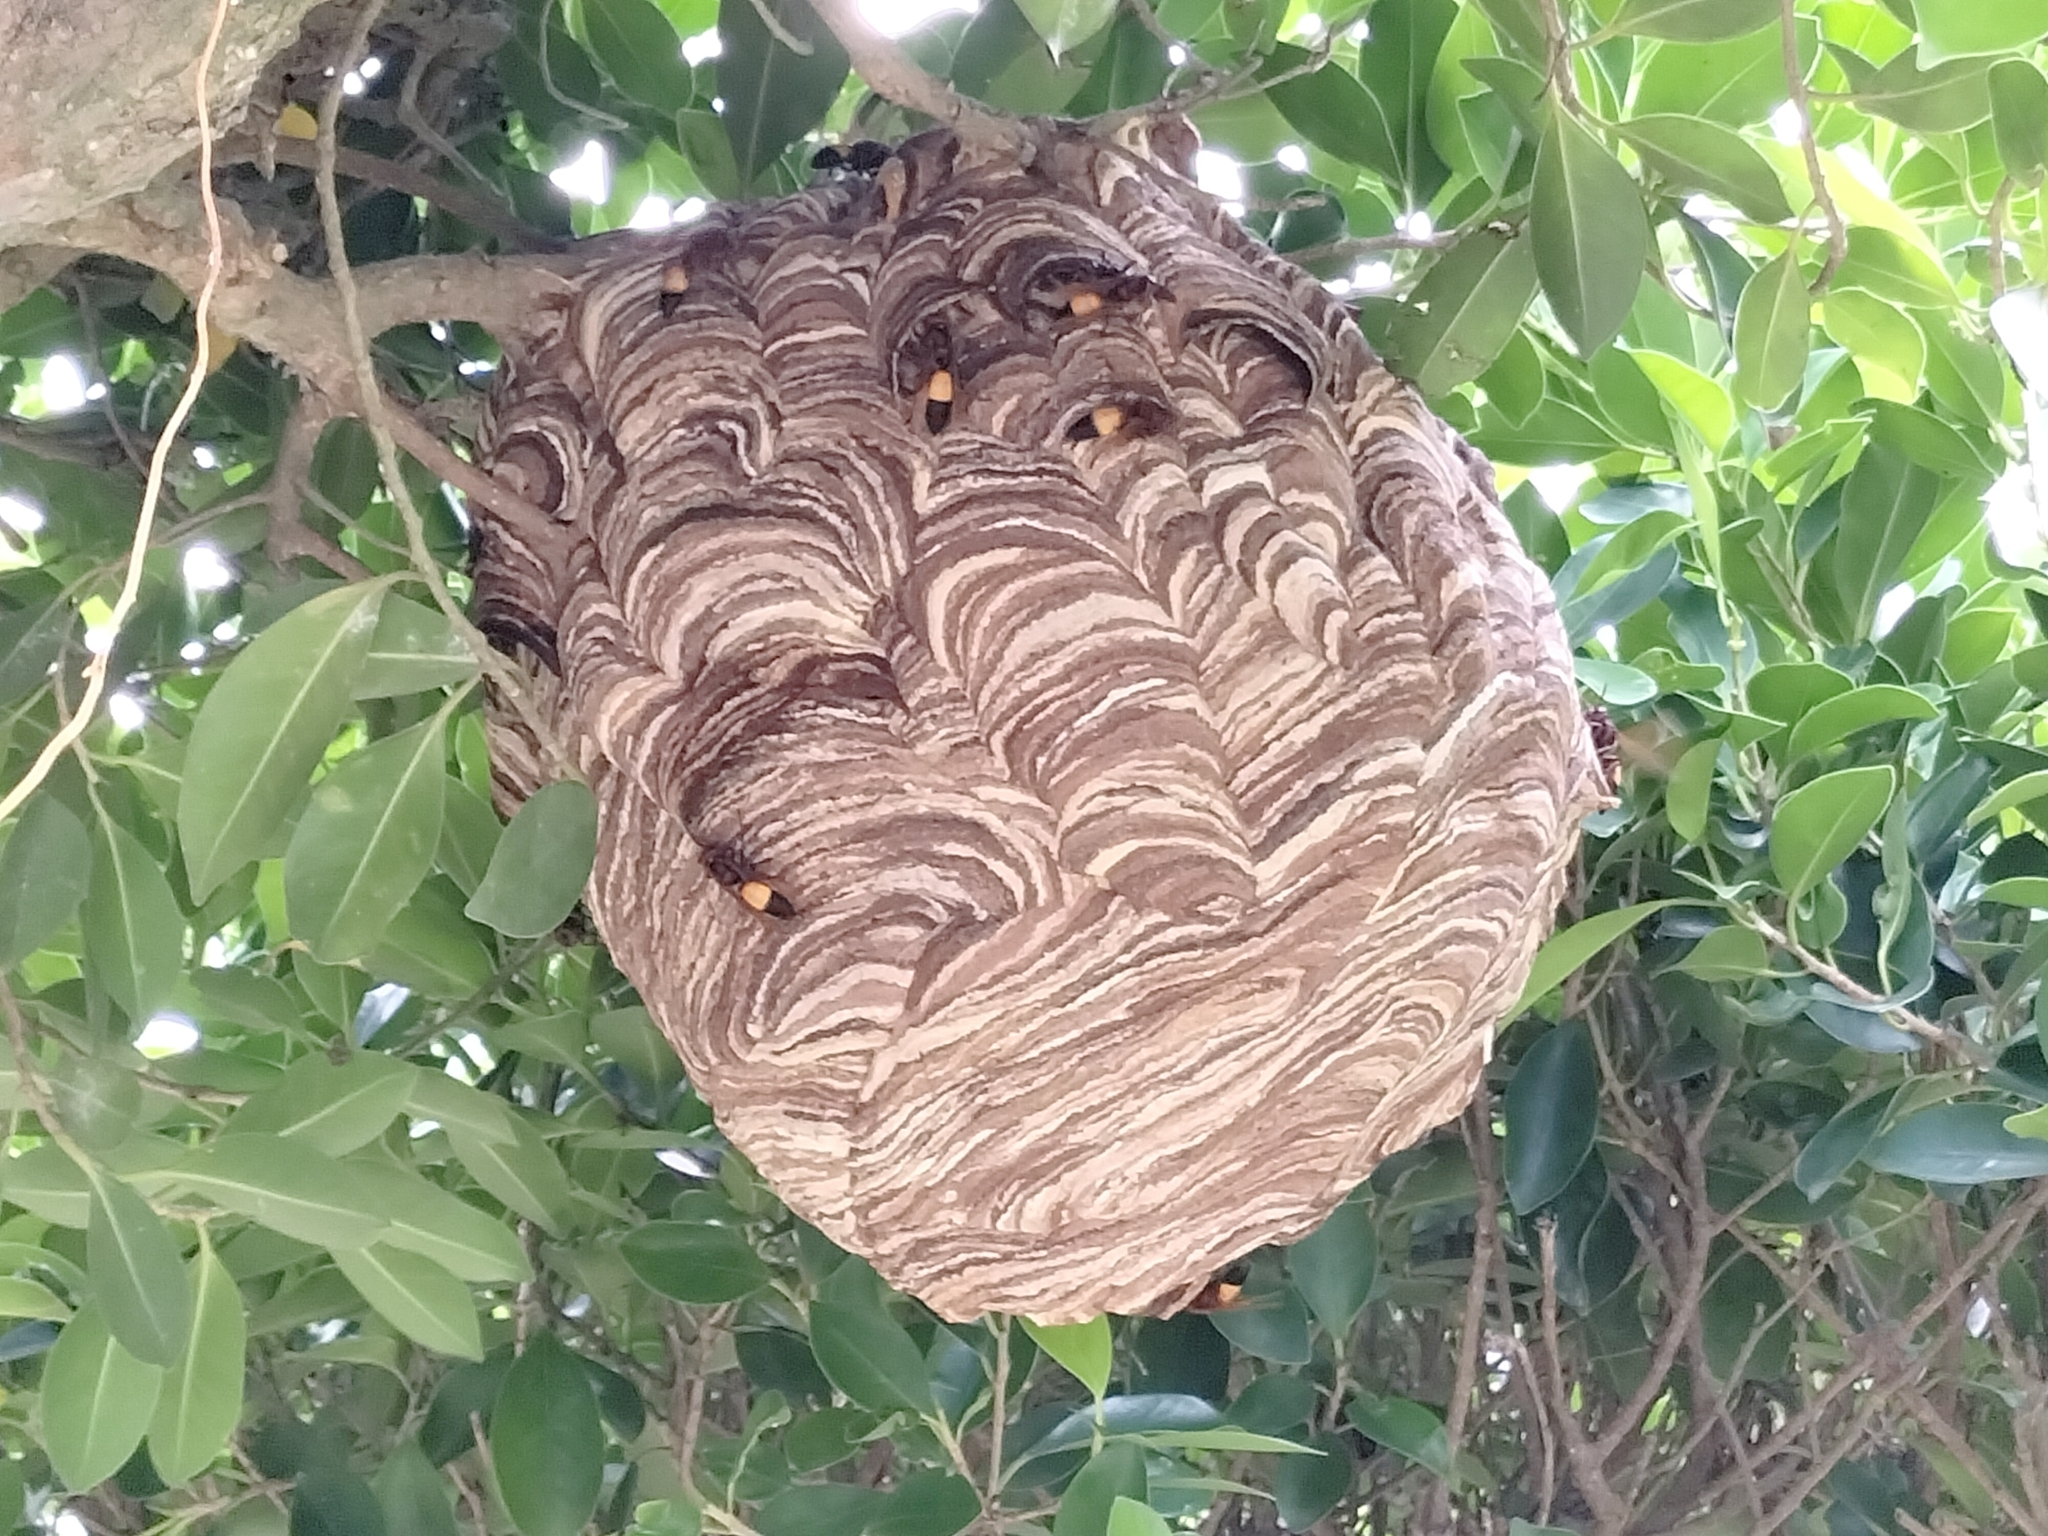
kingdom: Animalia
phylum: Arthropoda
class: Insecta
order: Hymenoptera
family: Vespidae
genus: Vespa
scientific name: Vespa affinis
